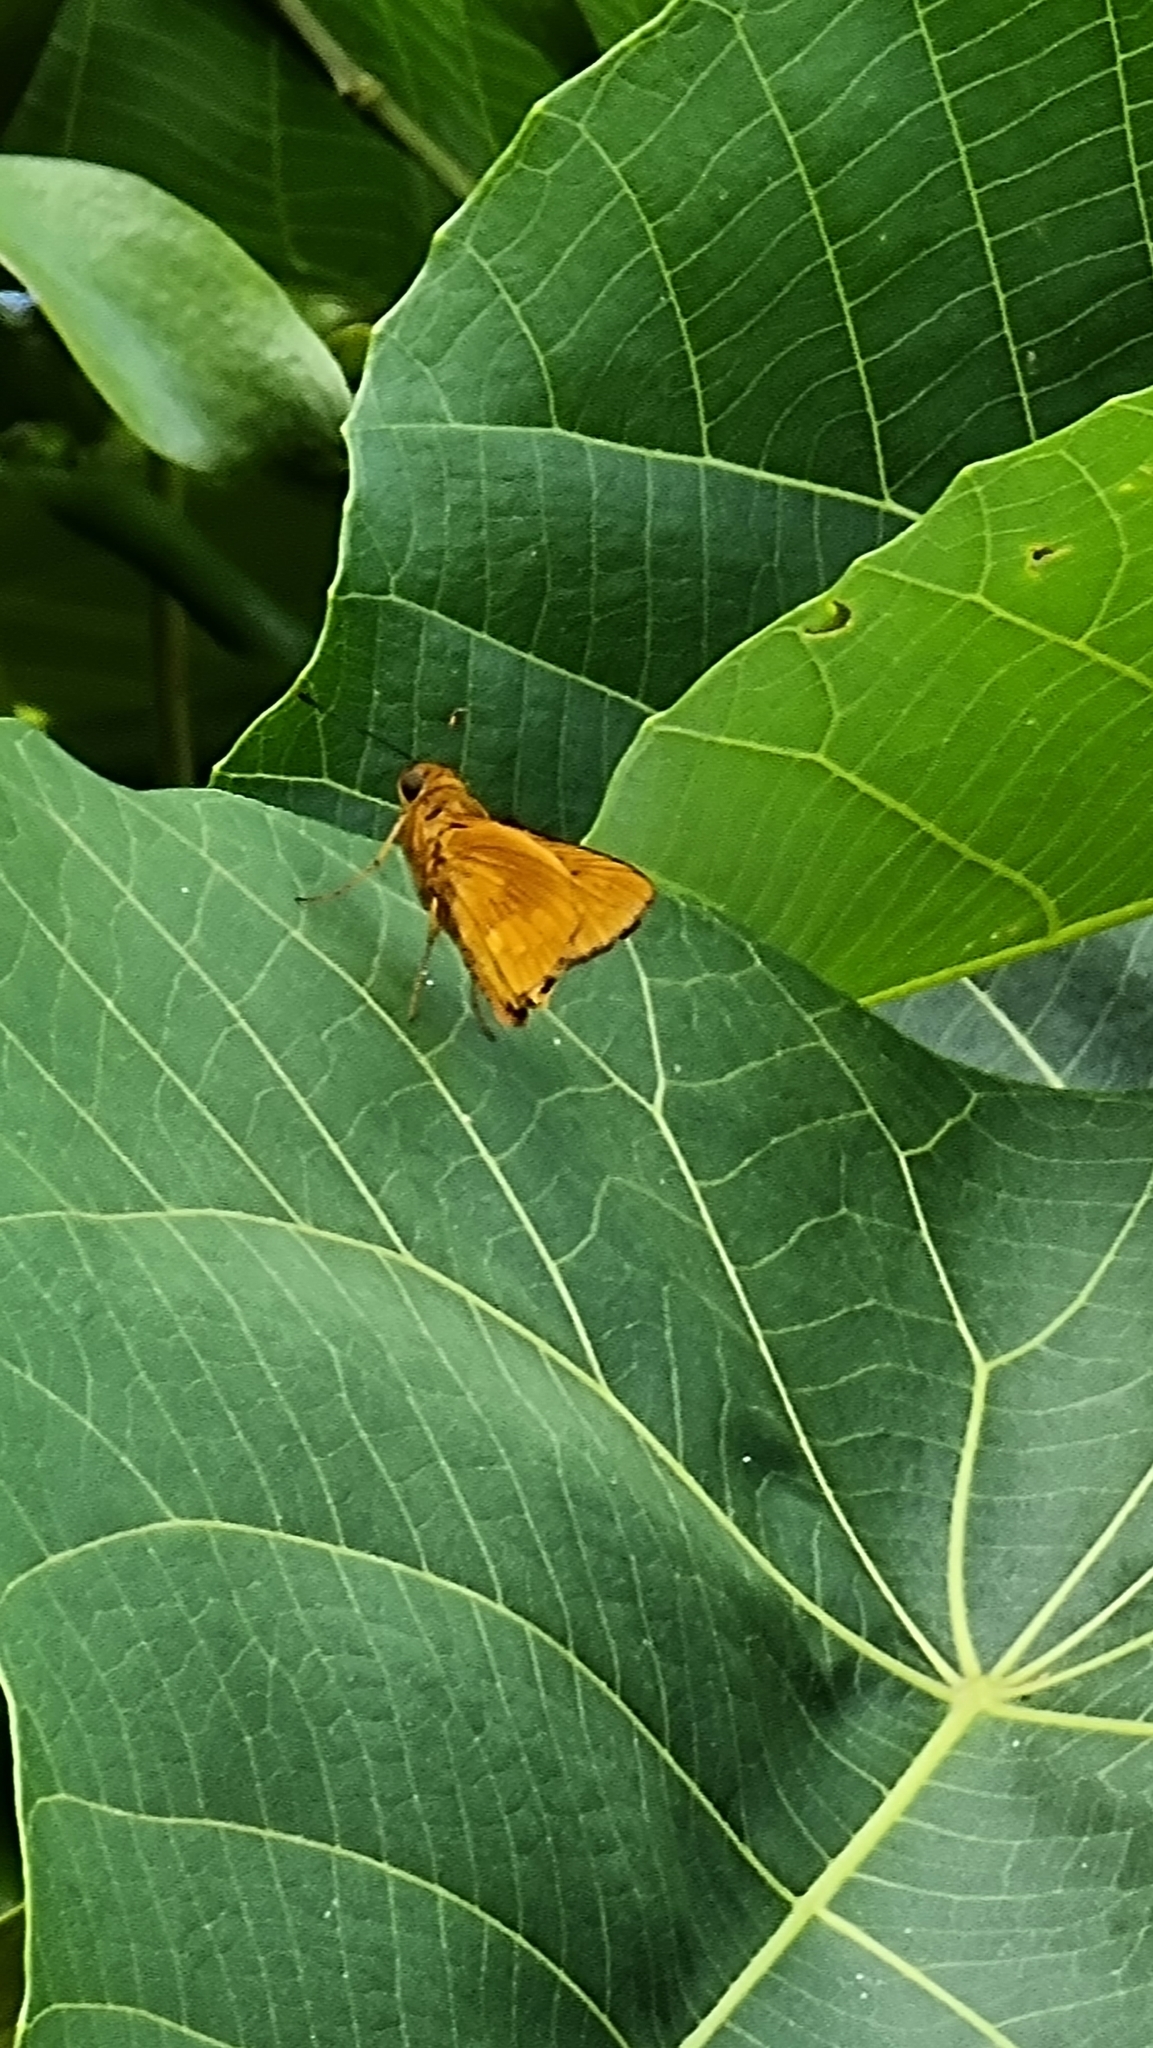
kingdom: Animalia
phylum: Arthropoda
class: Insecta
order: Lepidoptera
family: Hesperiidae
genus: Cephrenes
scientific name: Cephrenes augiades
